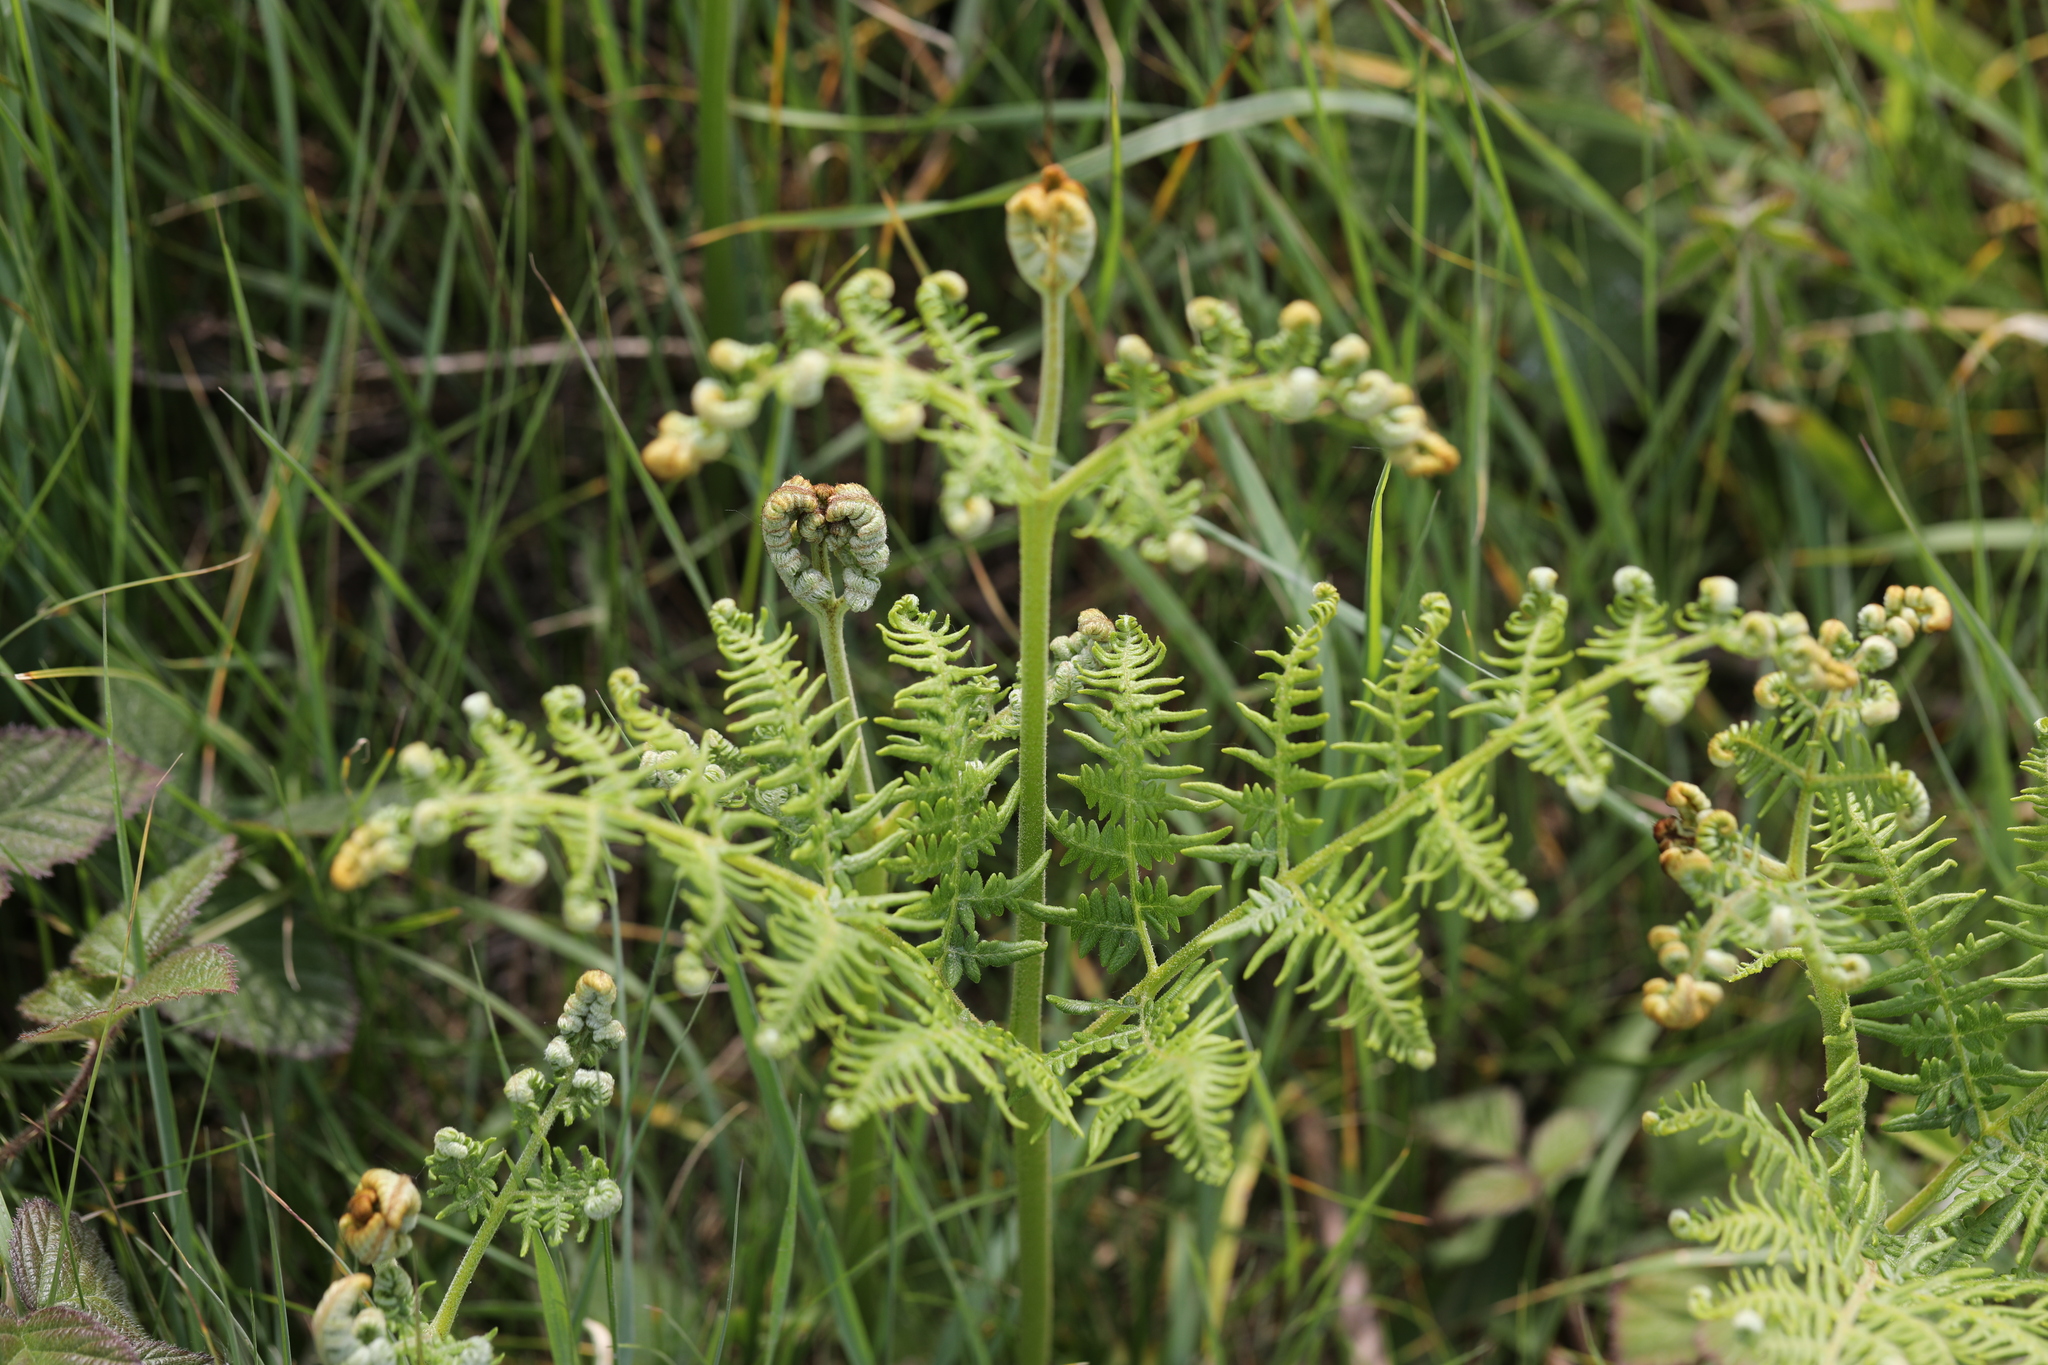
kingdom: Plantae
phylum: Tracheophyta
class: Polypodiopsida
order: Polypodiales
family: Dennstaedtiaceae
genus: Pteridium
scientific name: Pteridium aquilinum
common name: Bracken
